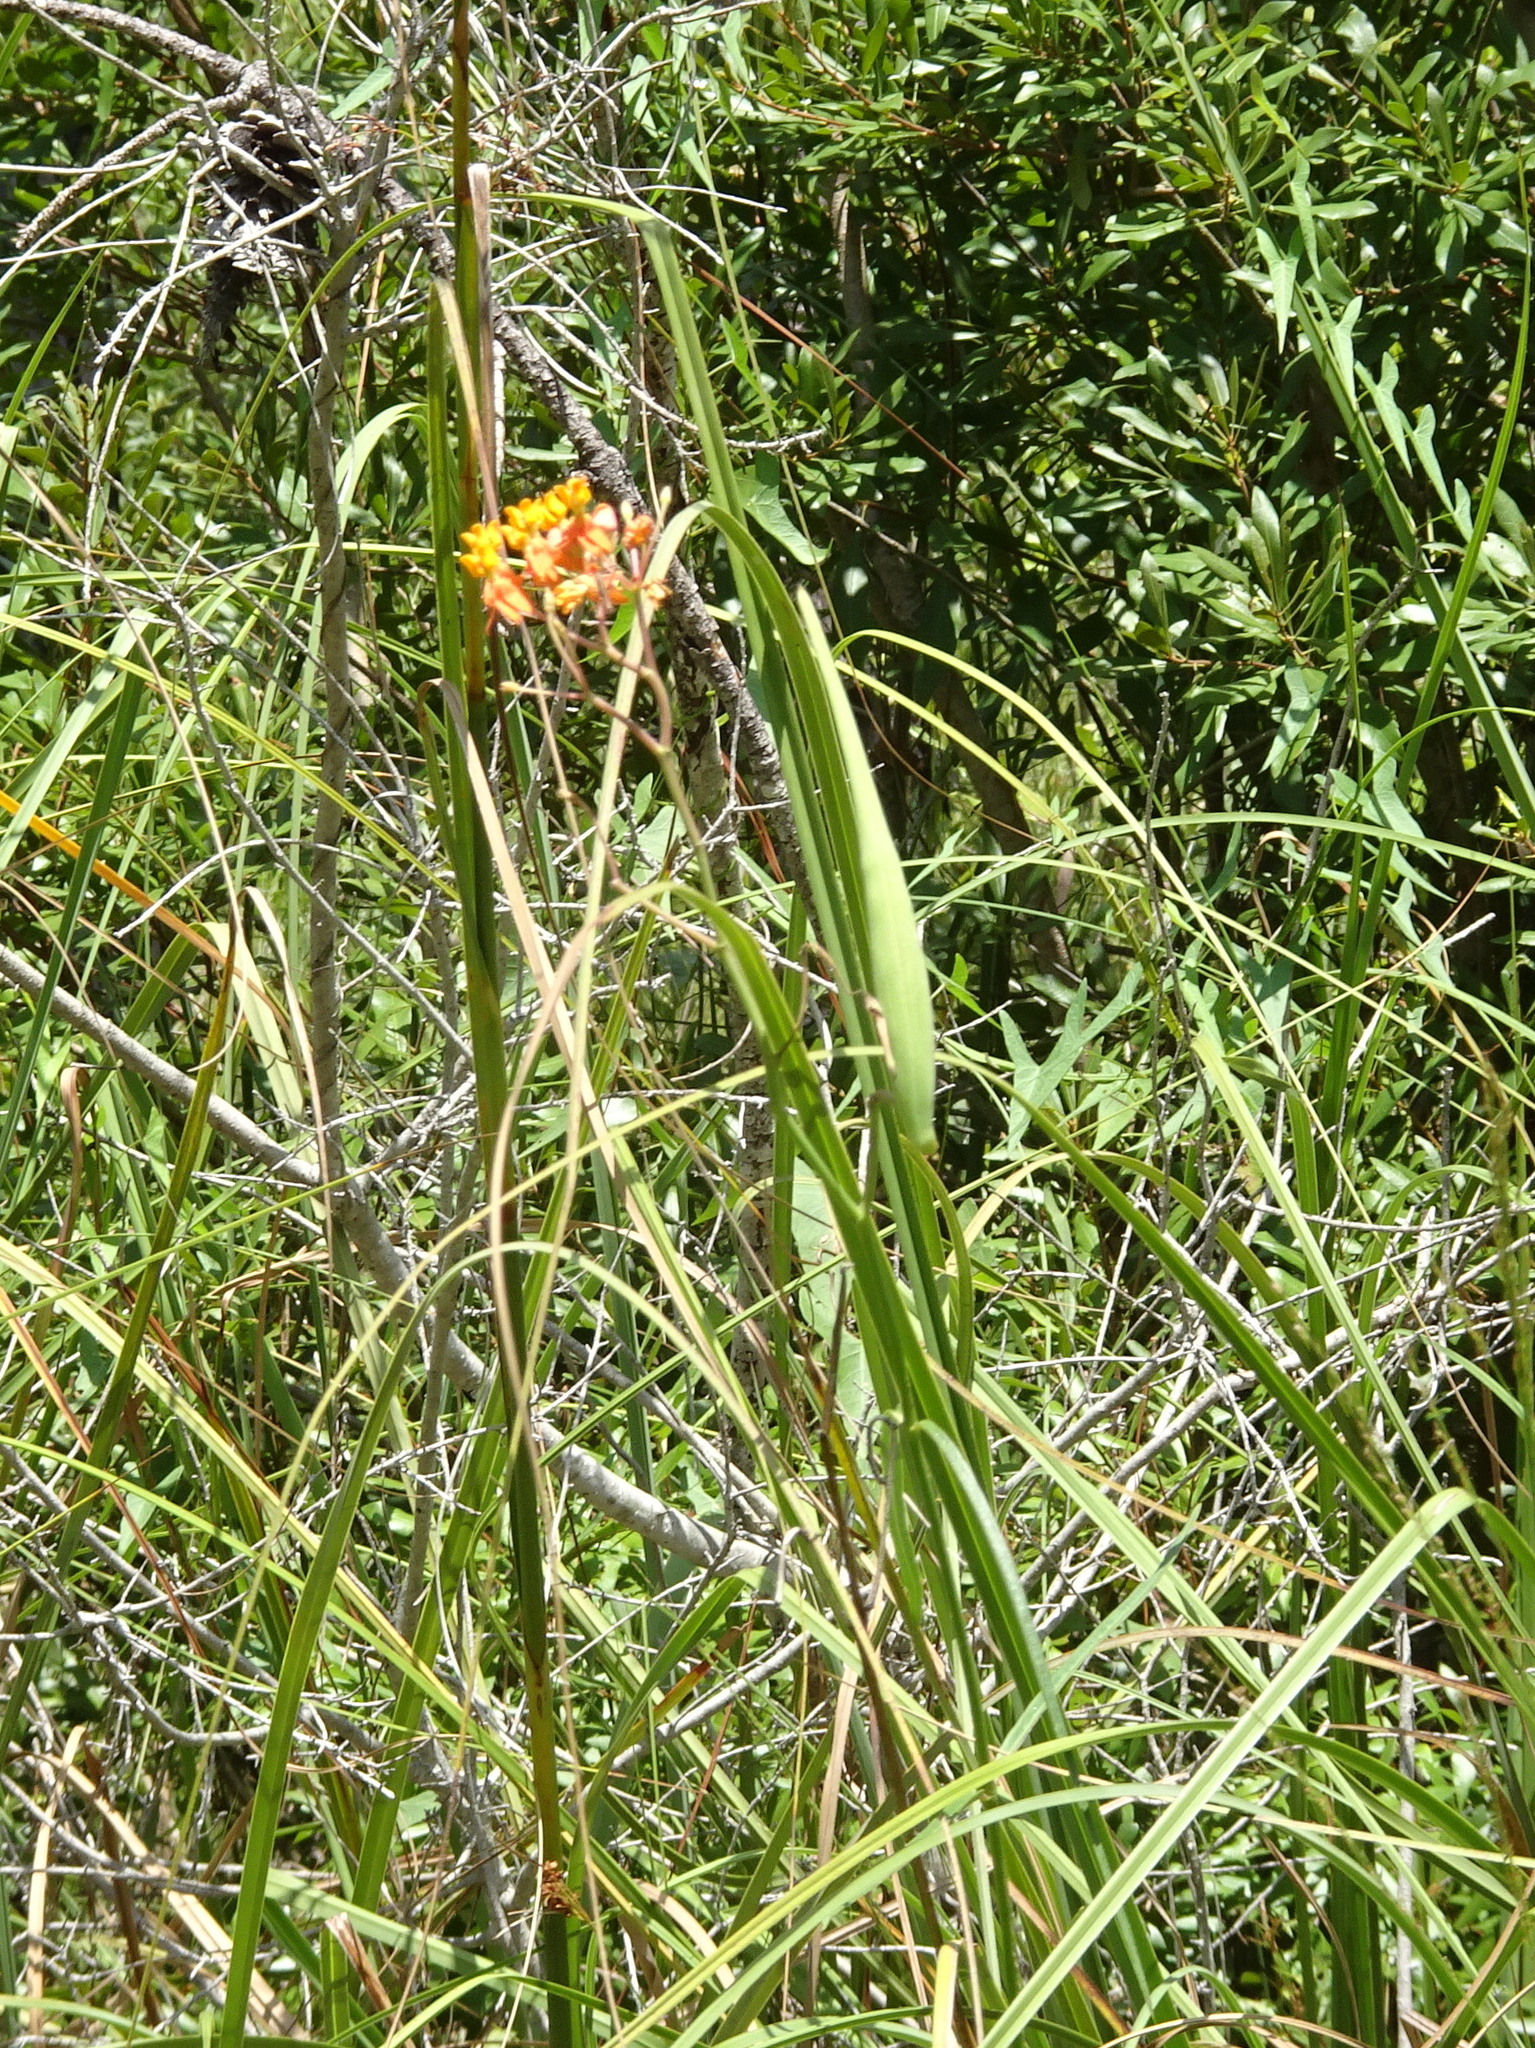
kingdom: Plantae
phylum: Tracheophyta
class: Magnoliopsida
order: Gentianales
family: Apocynaceae
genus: Asclepias
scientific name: Asclepias lanceolata
